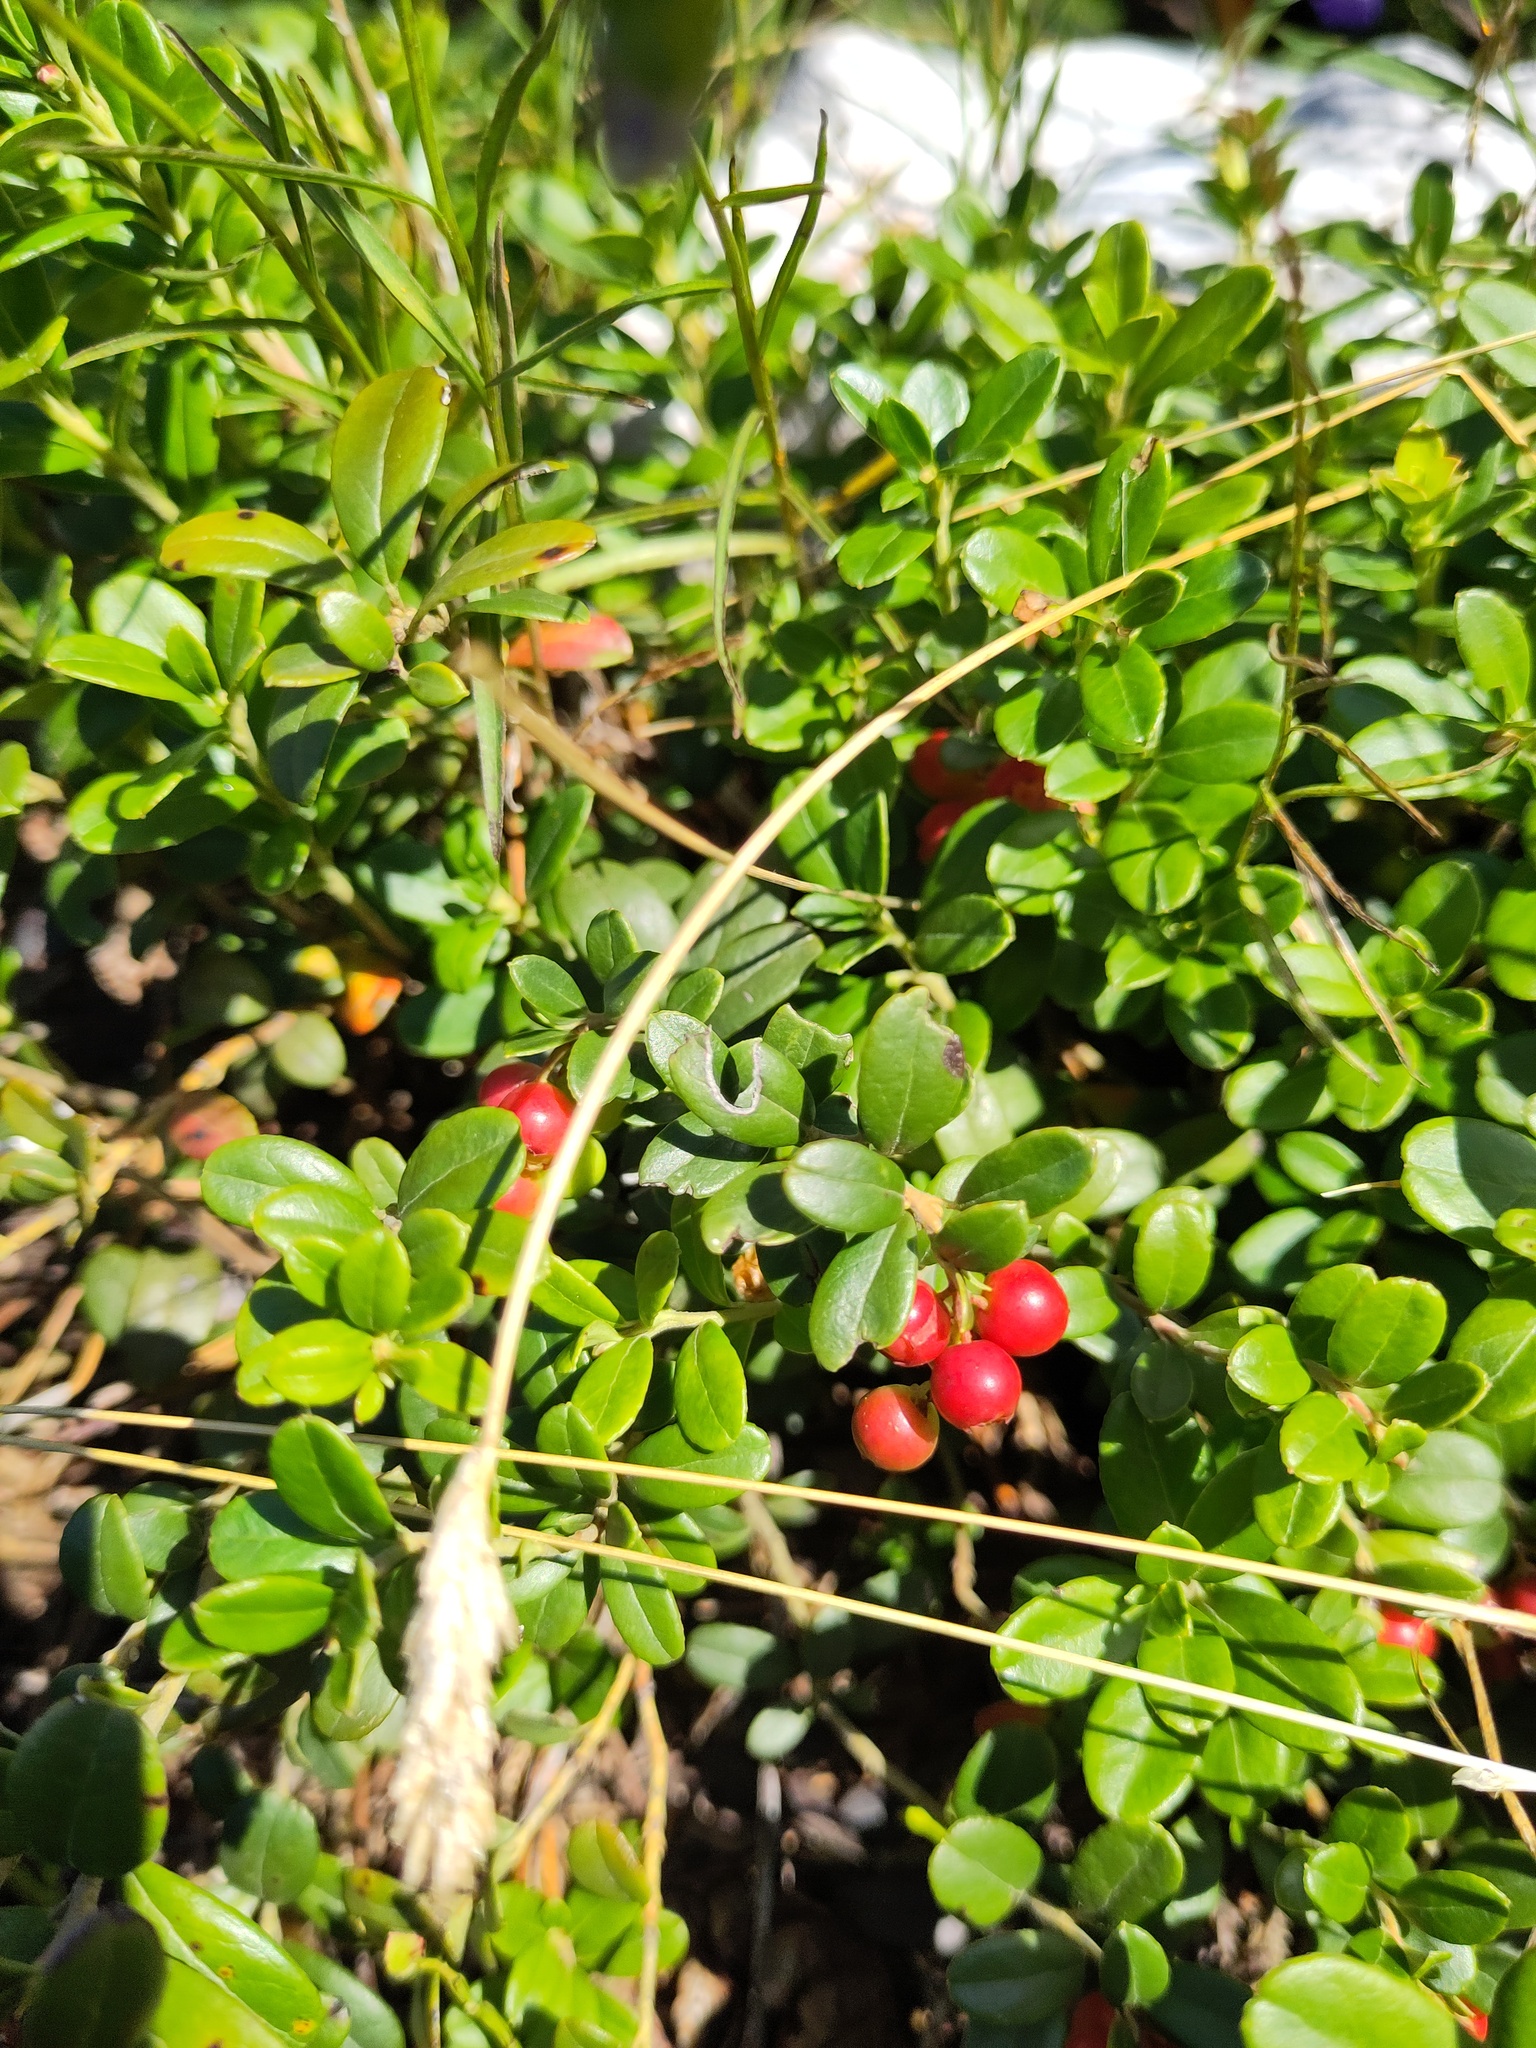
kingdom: Plantae
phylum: Tracheophyta
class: Magnoliopsida
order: Ericales
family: Ericaceae
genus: Vaccinium
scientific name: Vaccinium vitis-idaea
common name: Cowberry
